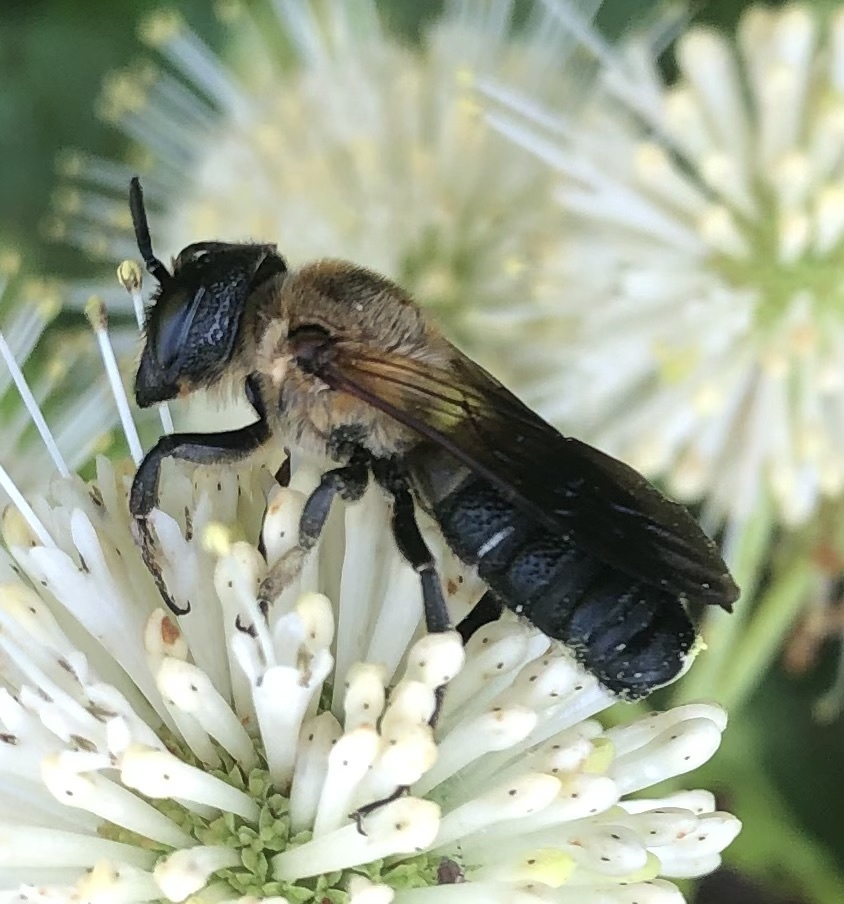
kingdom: Animalia
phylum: Arthropoda
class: Insecta
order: Hymenoptera
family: Megachilidae
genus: Megachile
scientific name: Megachile sculpturalis
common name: Sculptured resin bee
